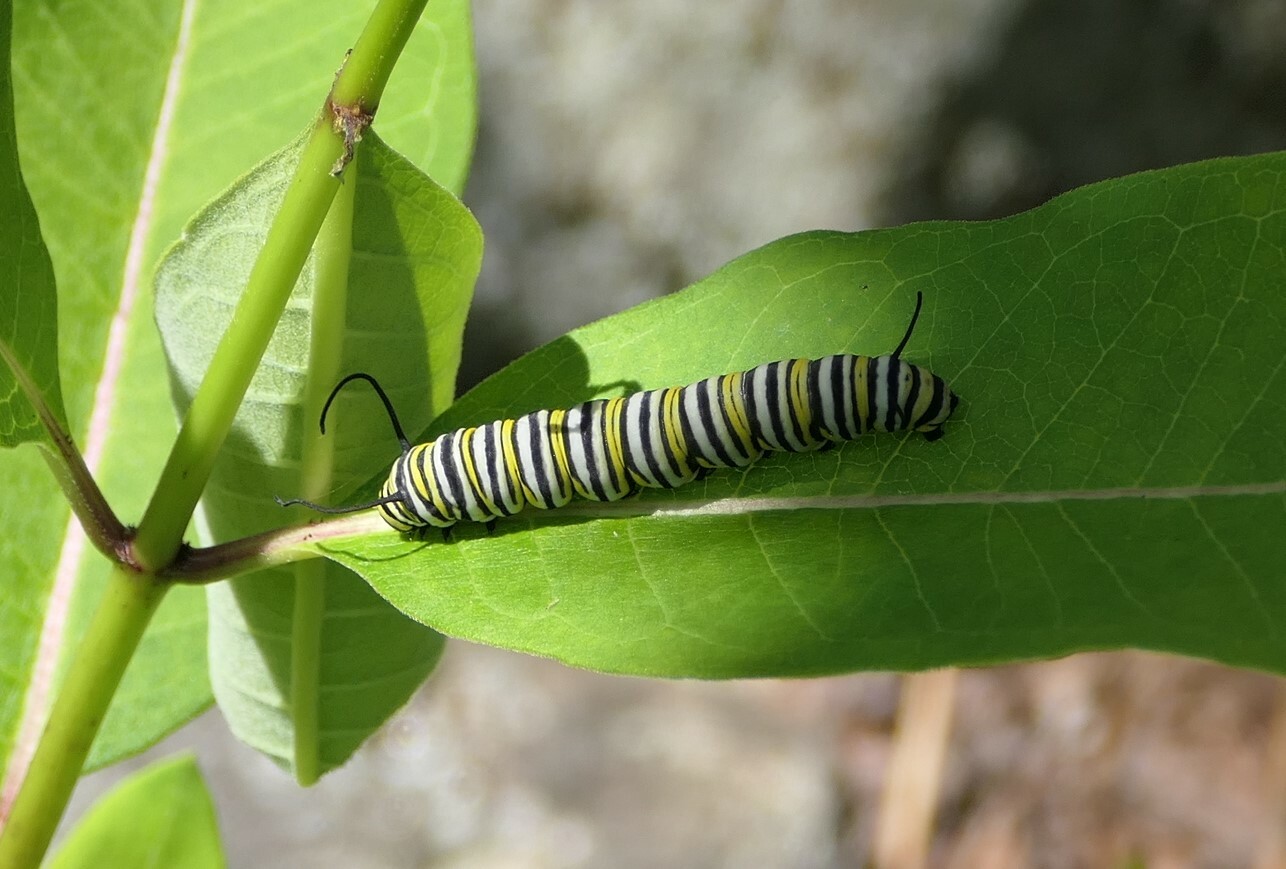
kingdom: Animalia
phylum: Arthropoda
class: Insecta
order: Lepidoptera
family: Nymphalidae
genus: Danaus
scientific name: Danaus plexippus
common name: Monarch
